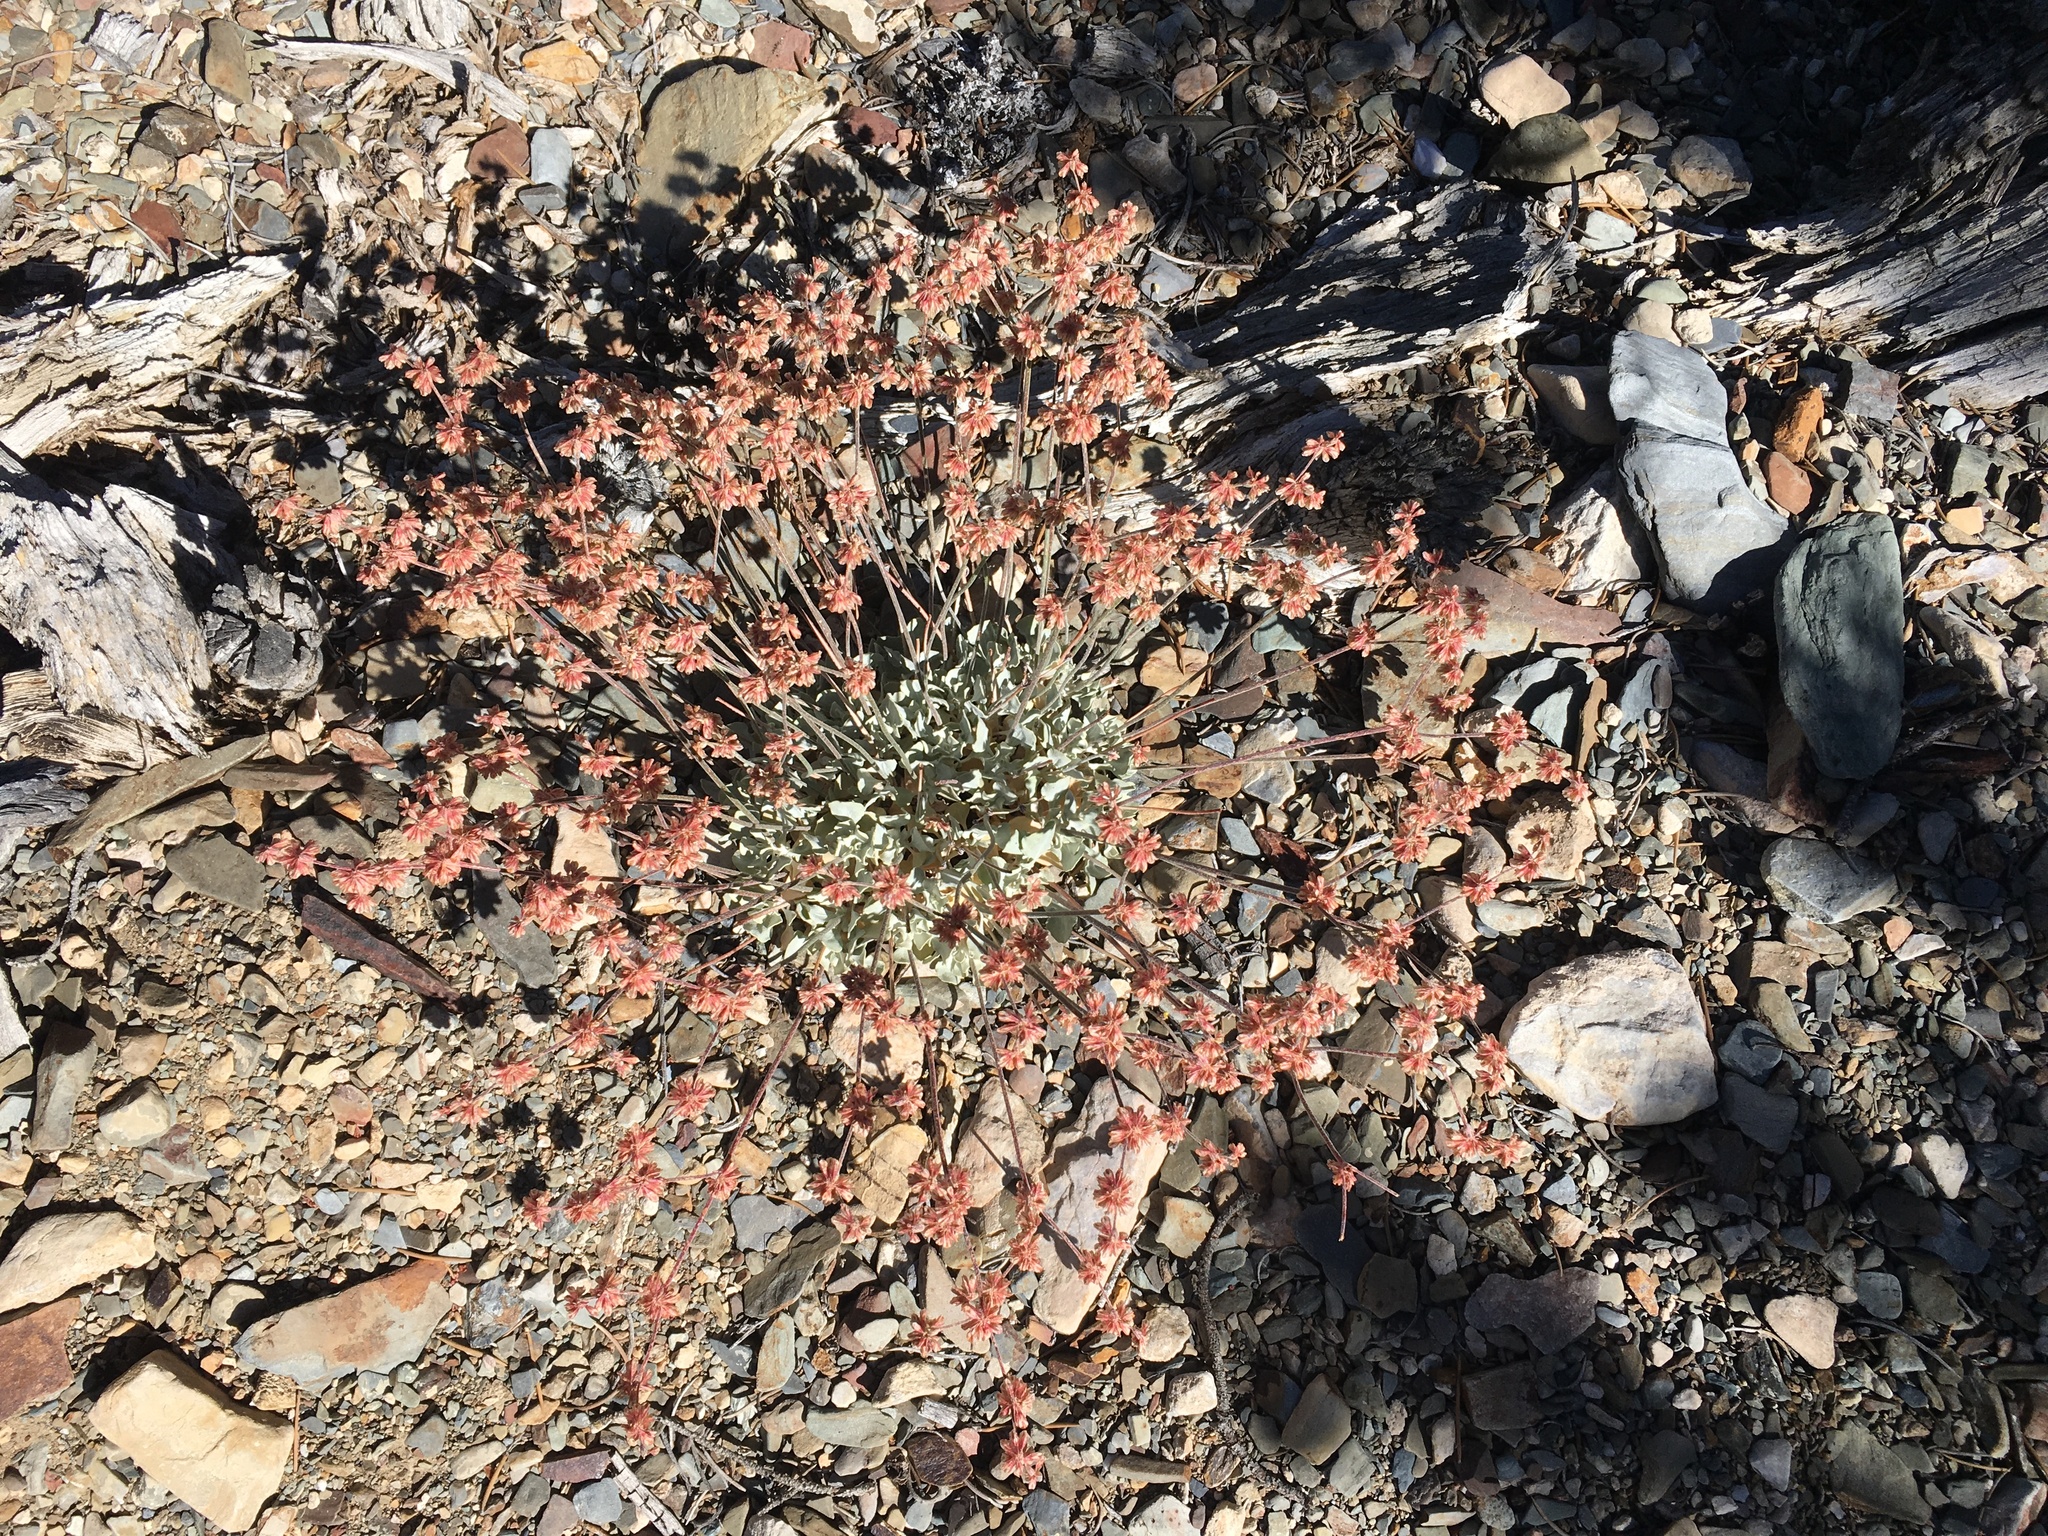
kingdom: Plantae
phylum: Tracheophyta
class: Magnoliopsida
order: Caryophyllales
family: Polygonaceae
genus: Eriogonum
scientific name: Eriogonum saxatile
